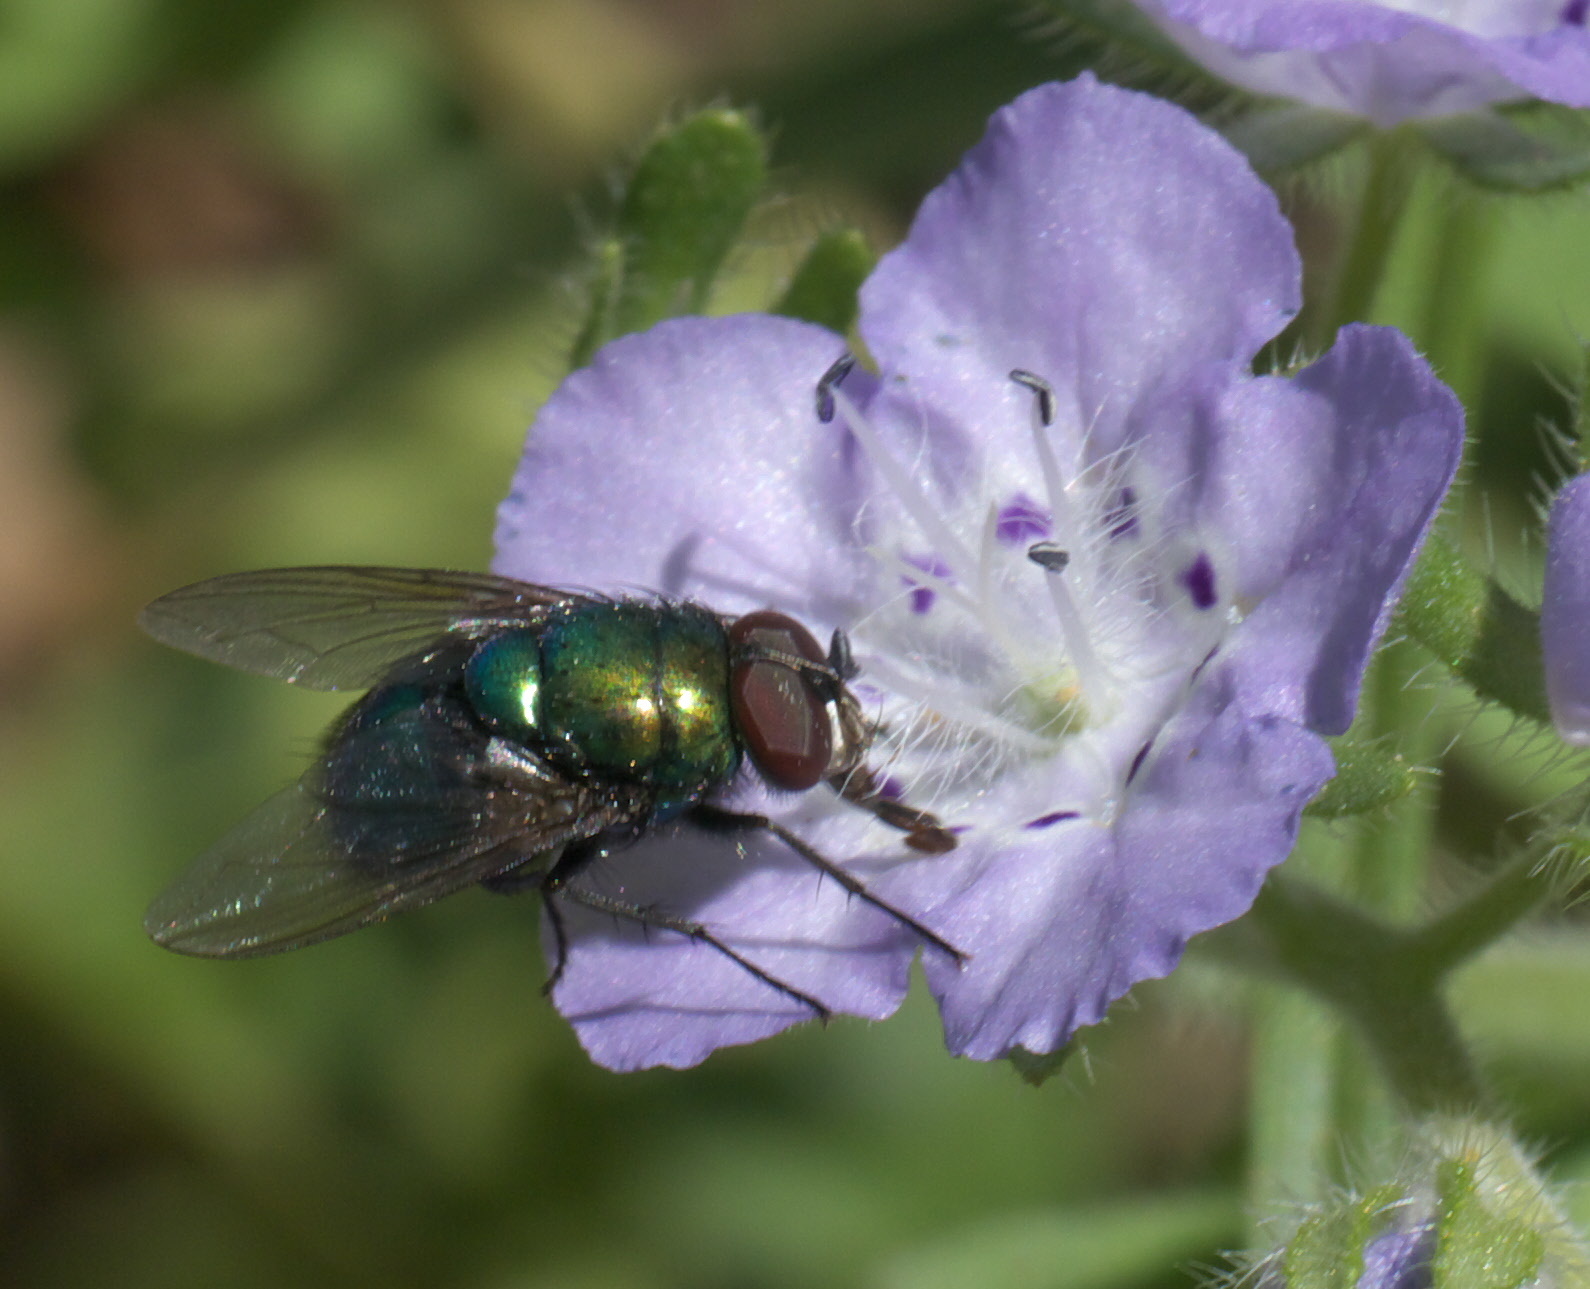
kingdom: Animalia
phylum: Arthropoda
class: Insecta
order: Diptera
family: Calliphoridae
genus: Lucilia
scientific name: Lucilia illustris
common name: Illustrious greenbottle
